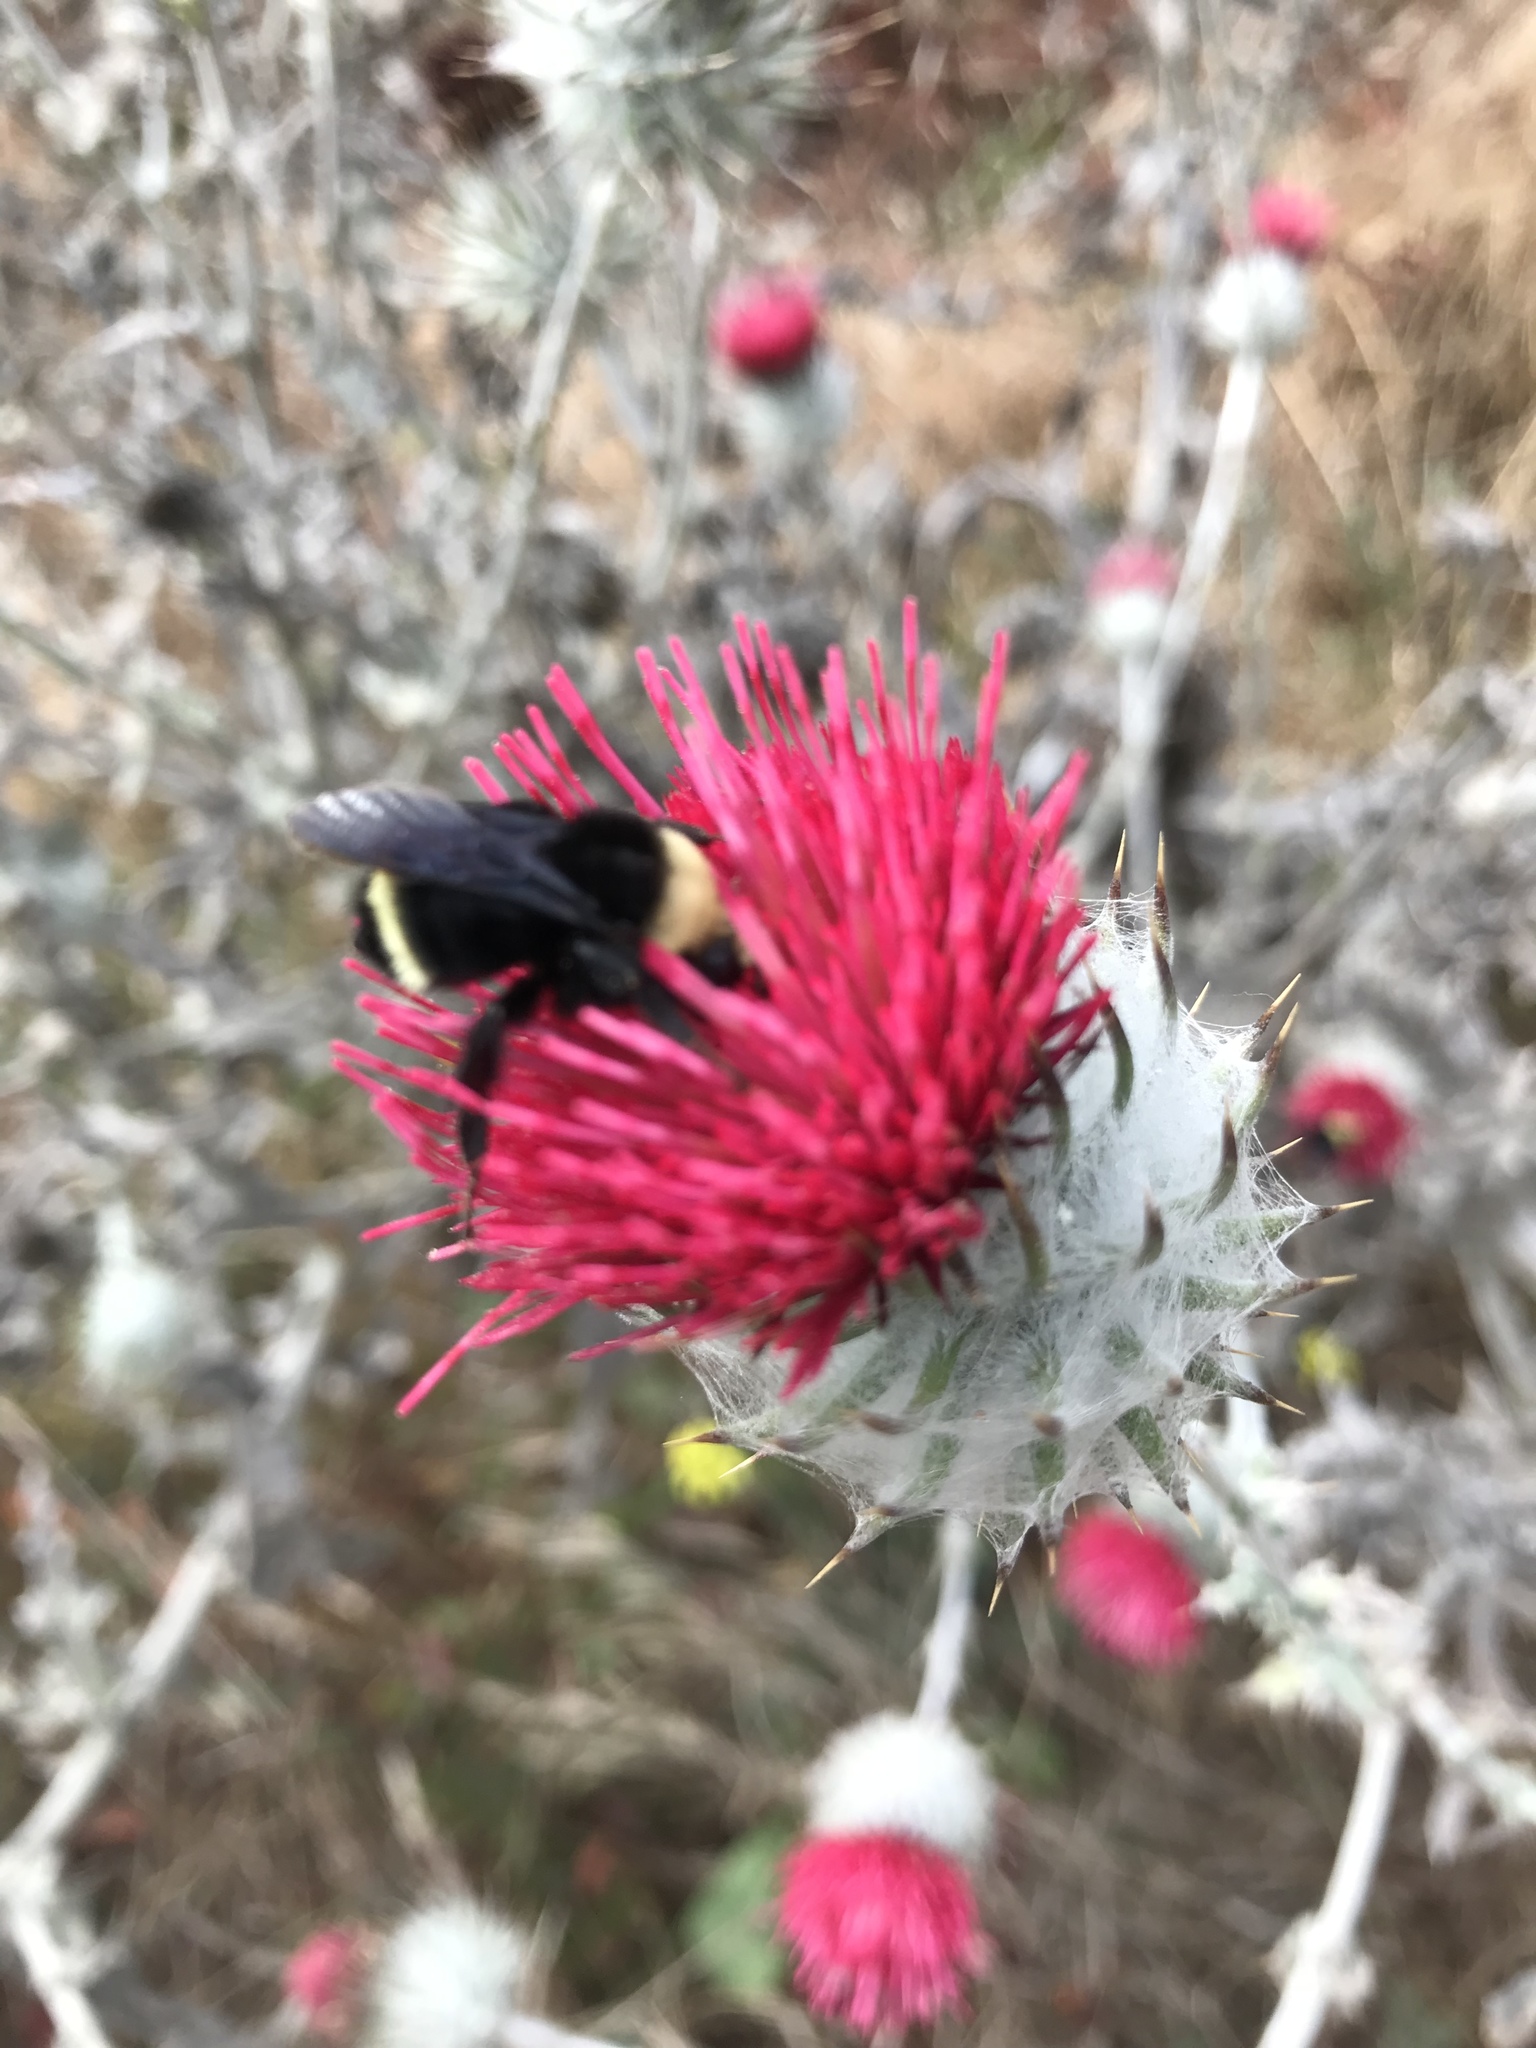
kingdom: Plantae
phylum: Tracheophyta
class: Magnoliopsida
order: Asterales
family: Asteraceae
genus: Cirsium
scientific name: Cirsium occidentale
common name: Western thistle
